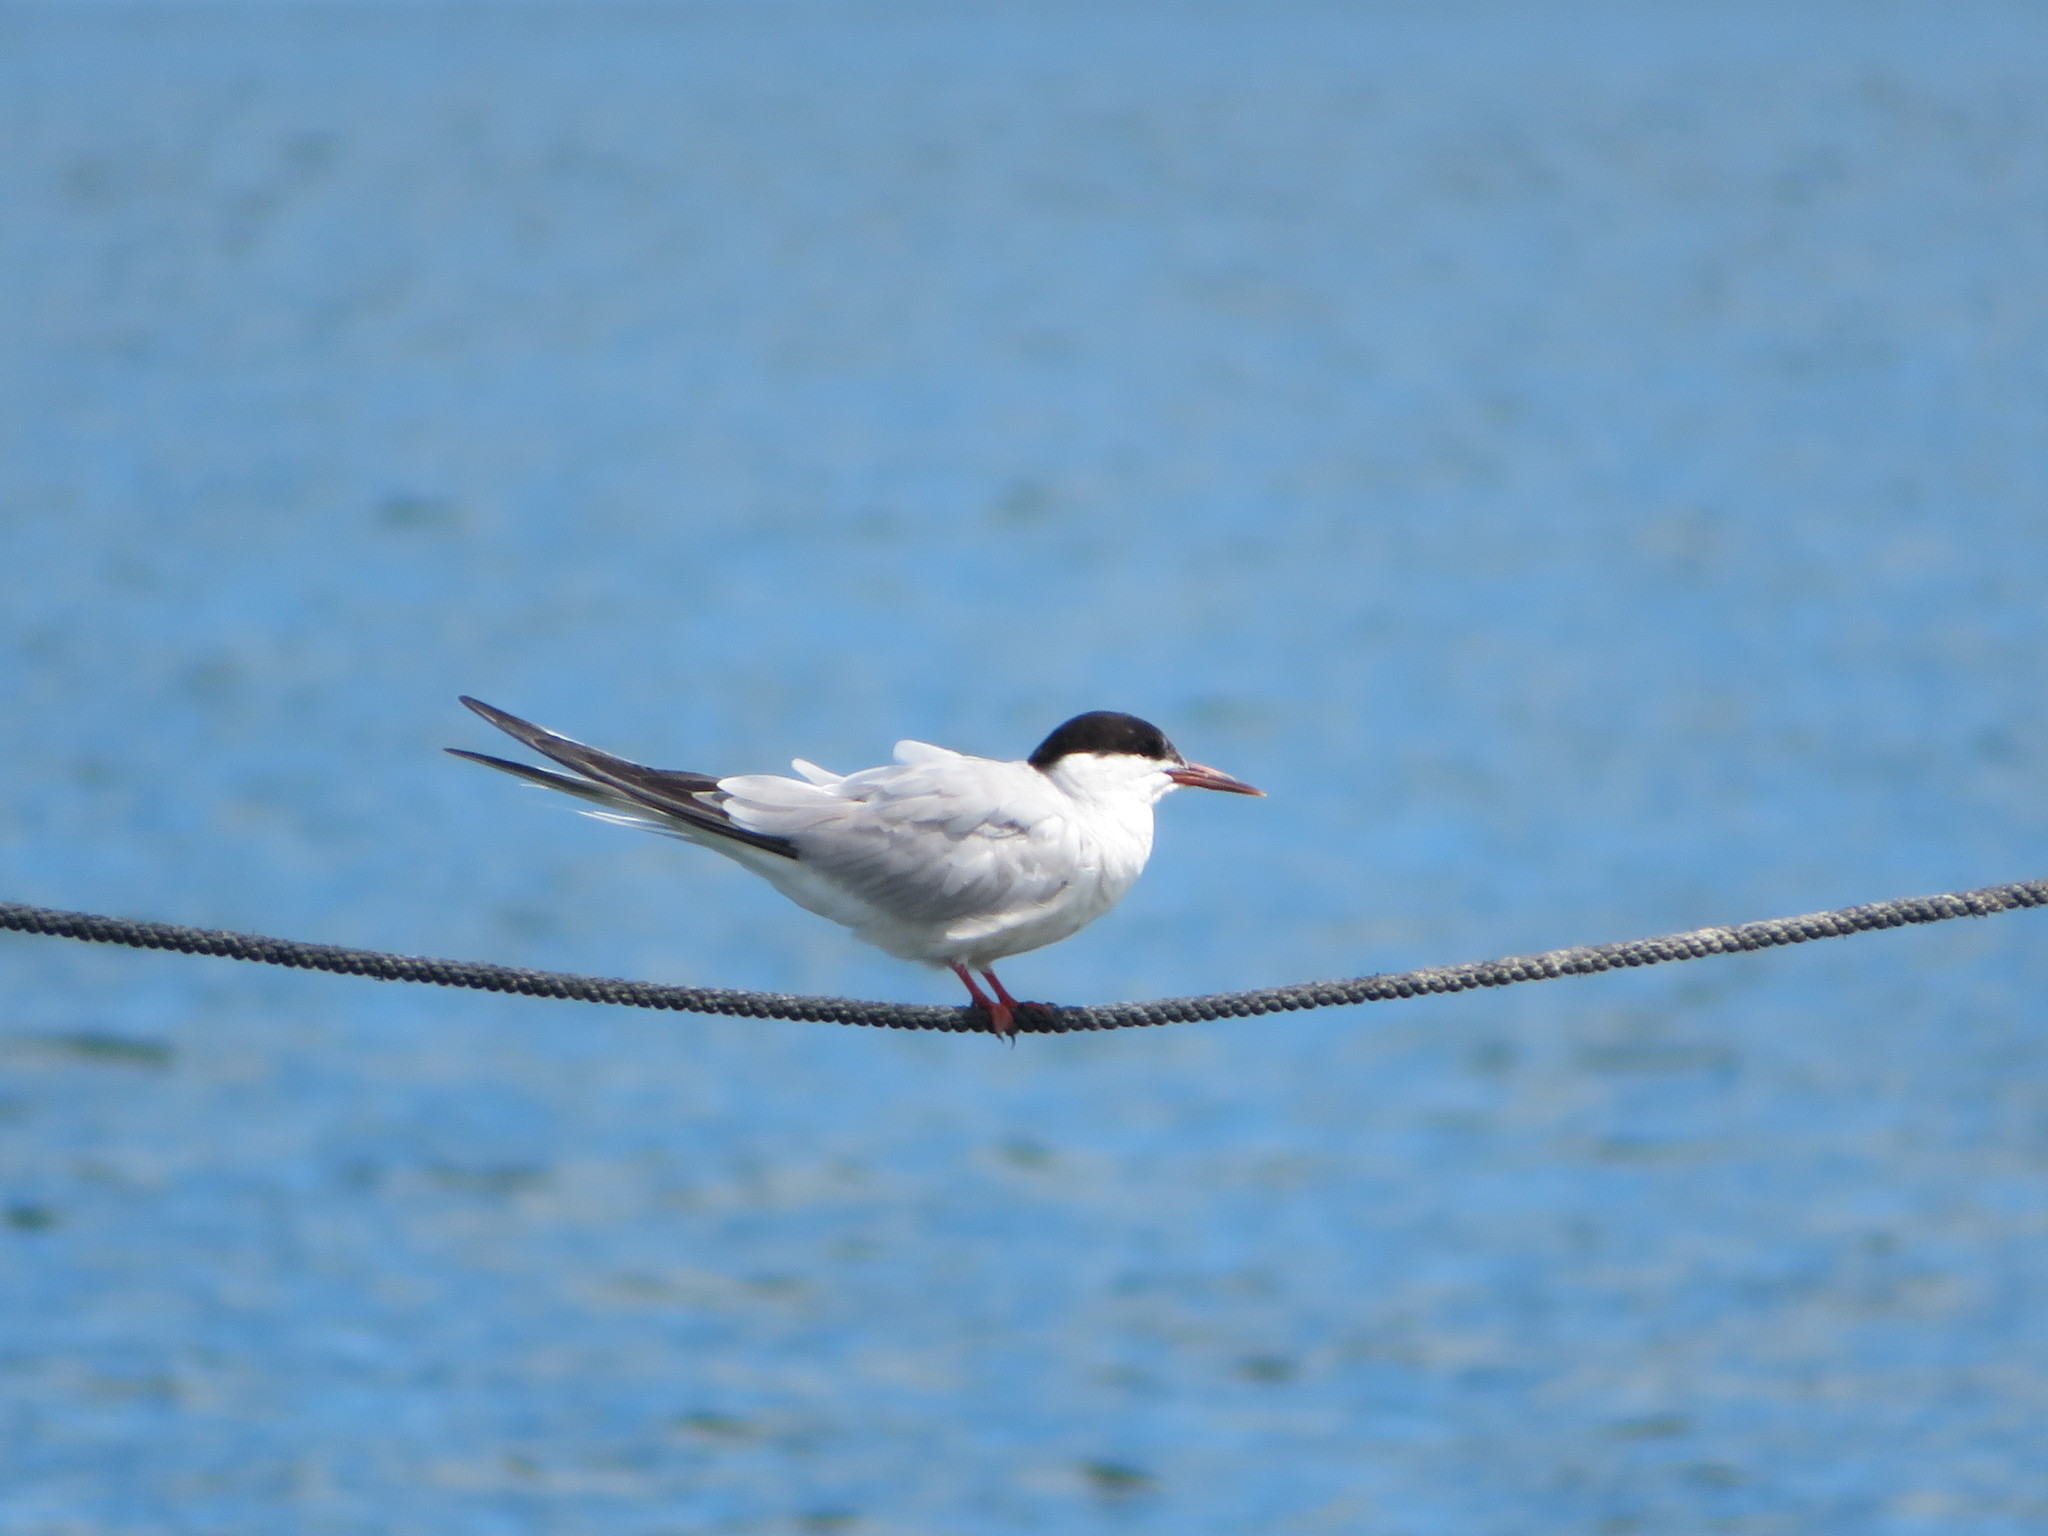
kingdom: Animalia
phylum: Chordata
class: Aves
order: Charadriiformes
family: Laridae
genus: Sterna
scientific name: Sterna hirundo
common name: Common tern
